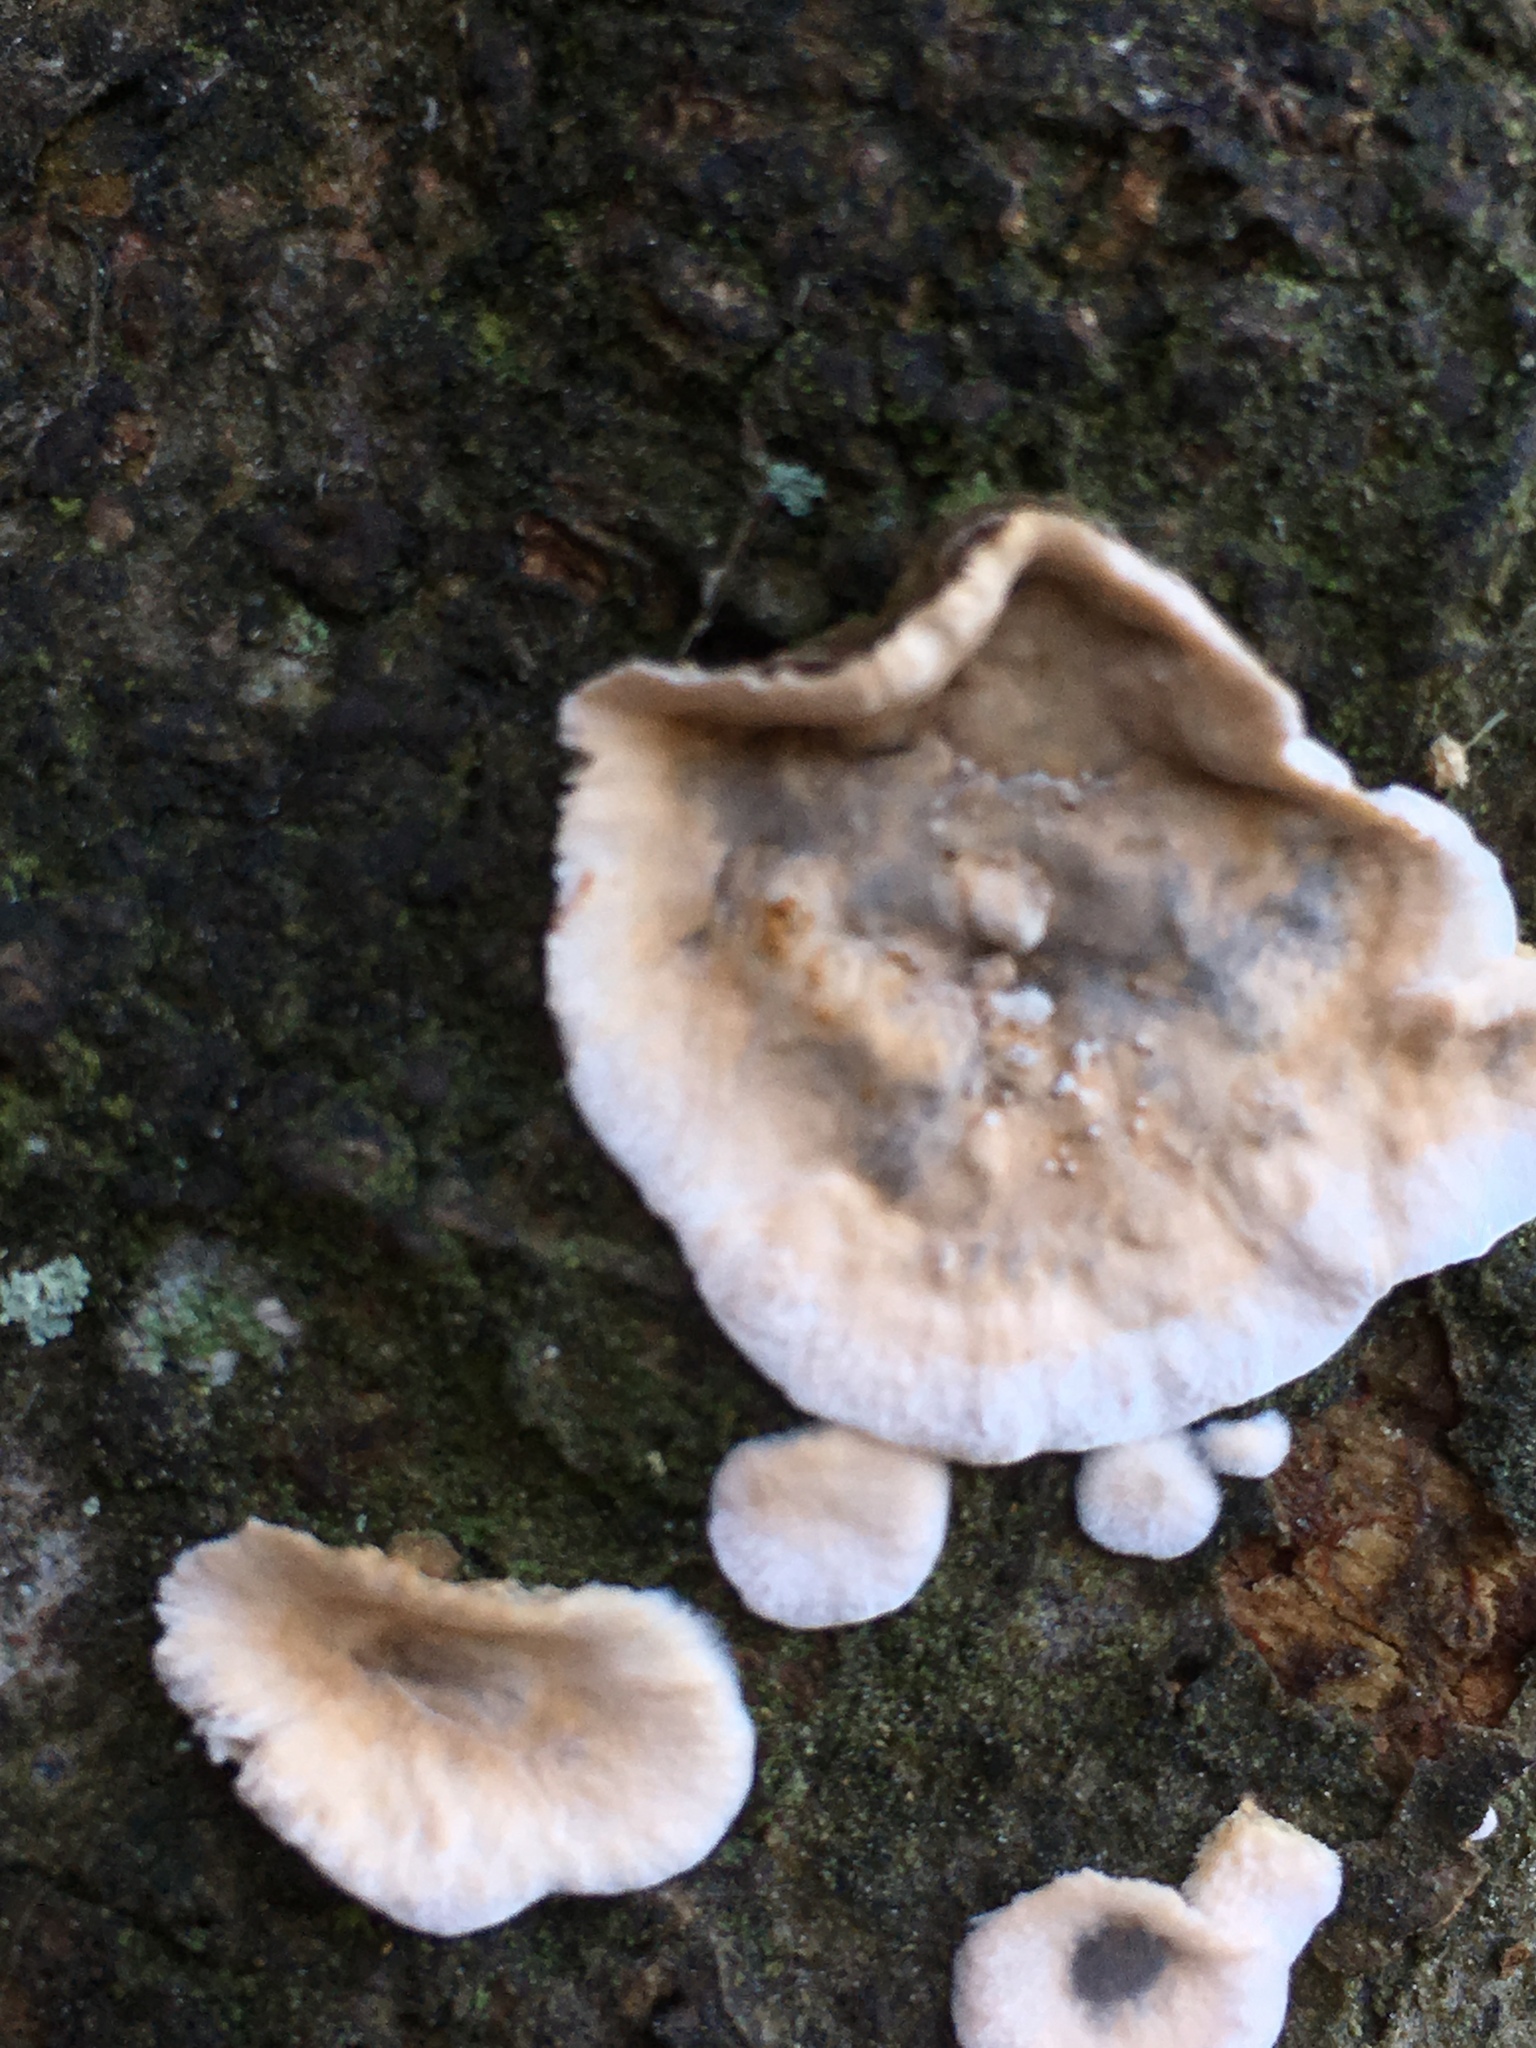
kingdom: Fungi
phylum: Basidiomycota
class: Agaricomycetes
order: Agaricales
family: Cyphellaceae
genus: Chondrostereum
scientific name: Chondrostereum purpureum
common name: Silver leaf disease
